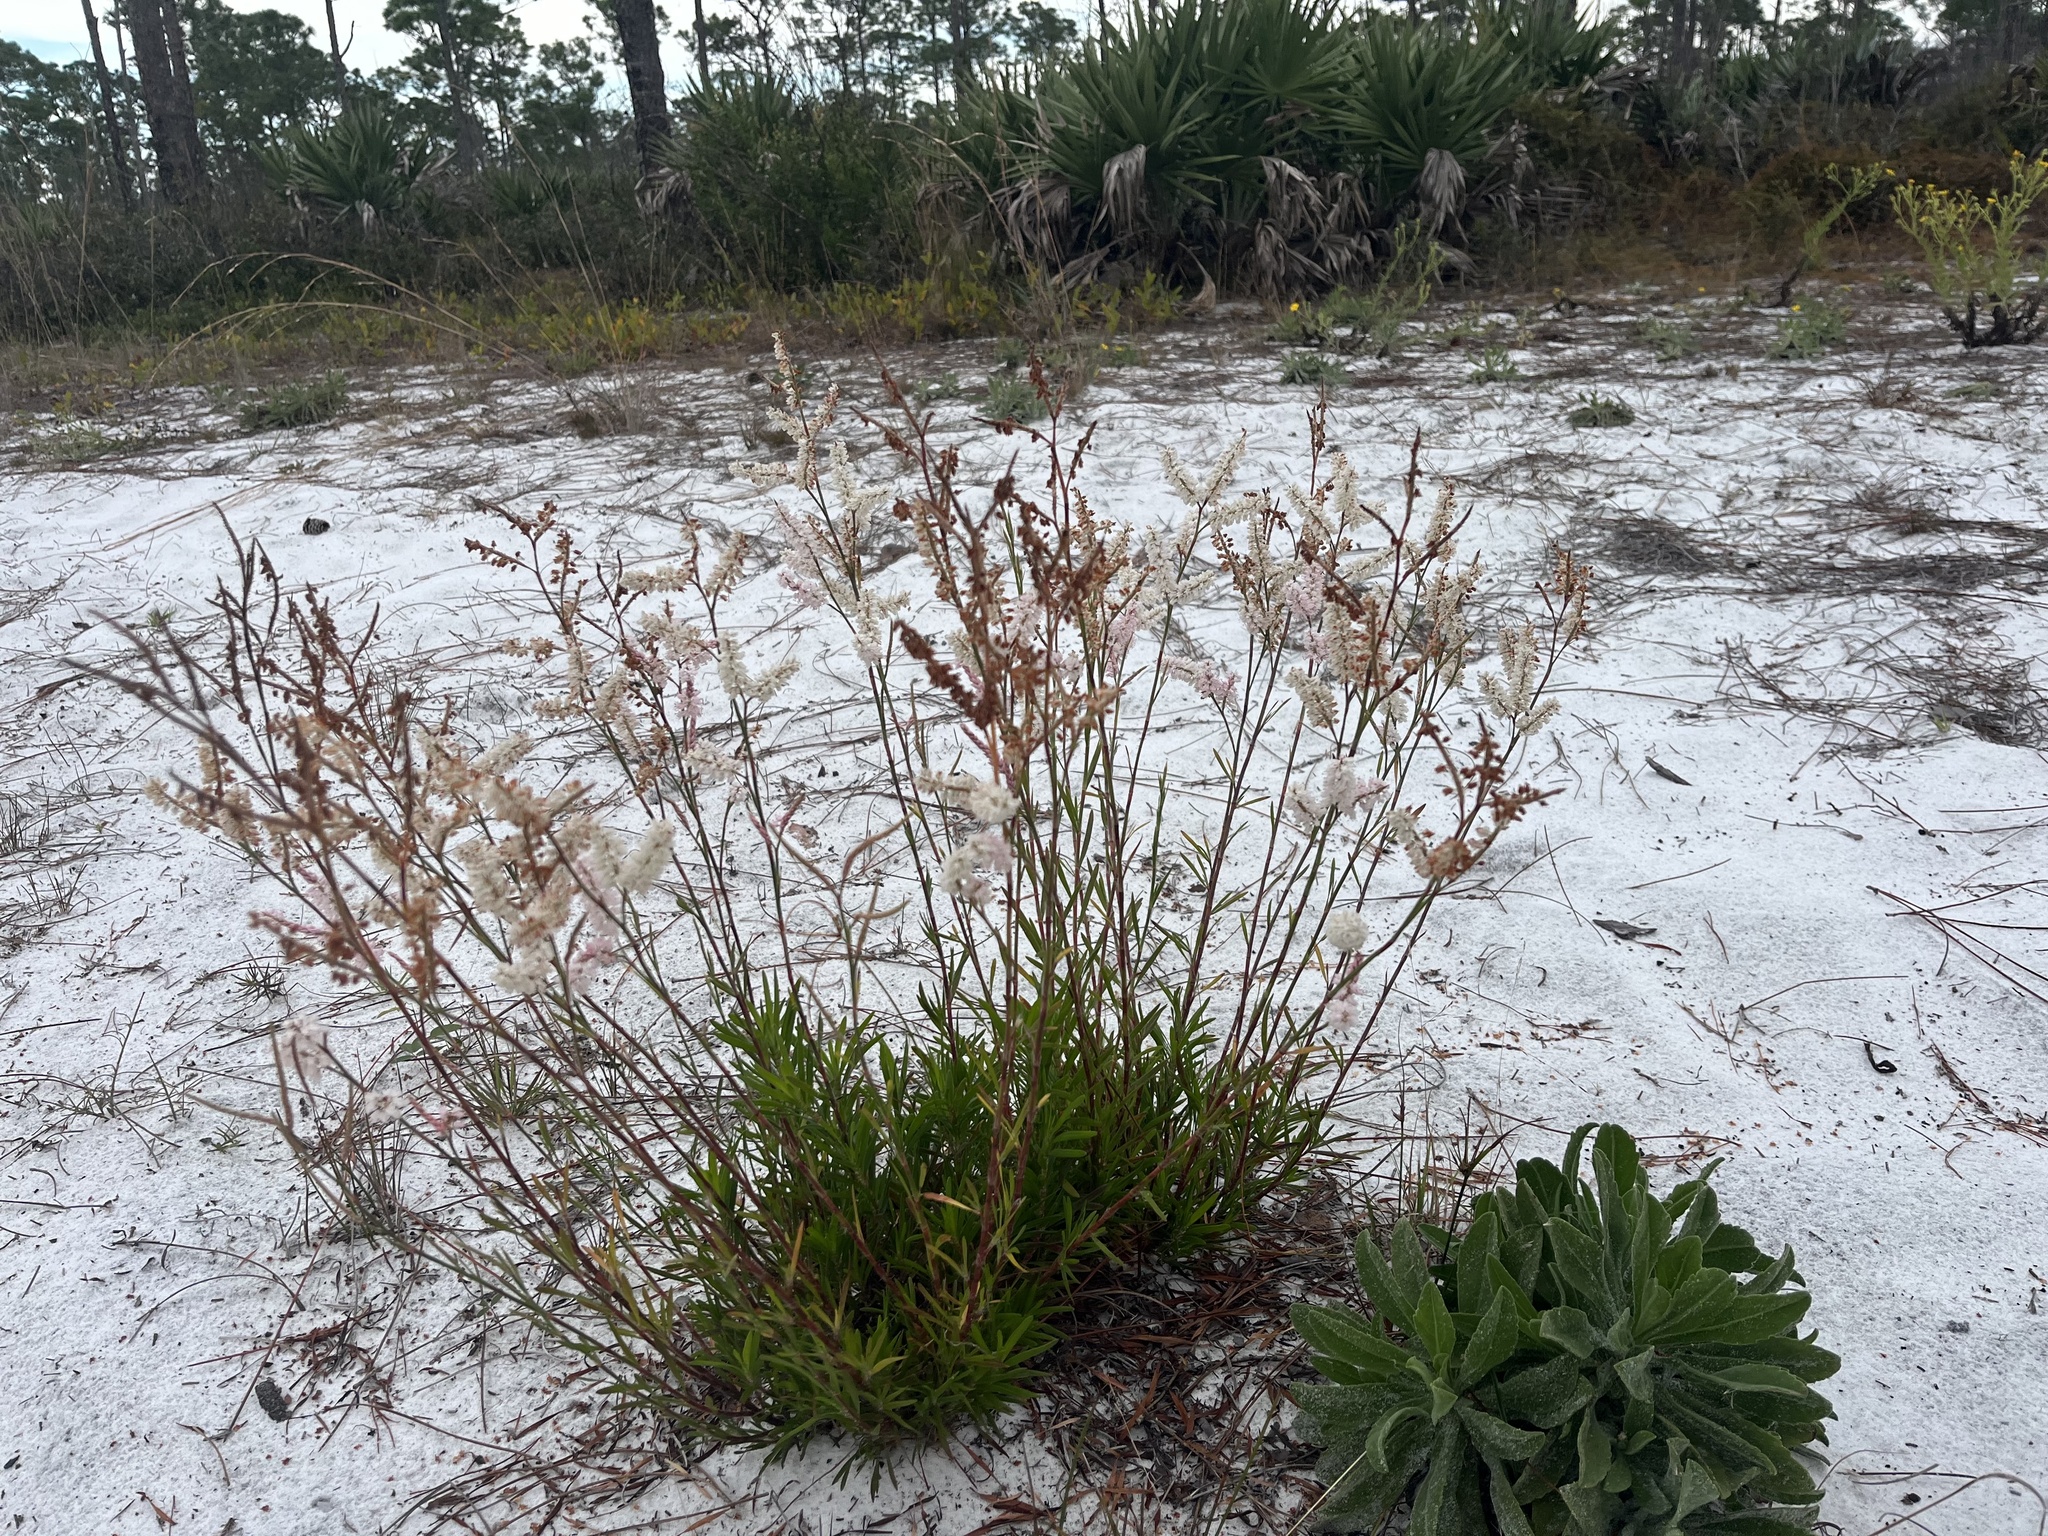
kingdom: Plantae
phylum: Tracheophyta
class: Magnoliopsida
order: Caryophyllales
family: Polygonaceae
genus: Polygonella
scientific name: Polygonella robusta
